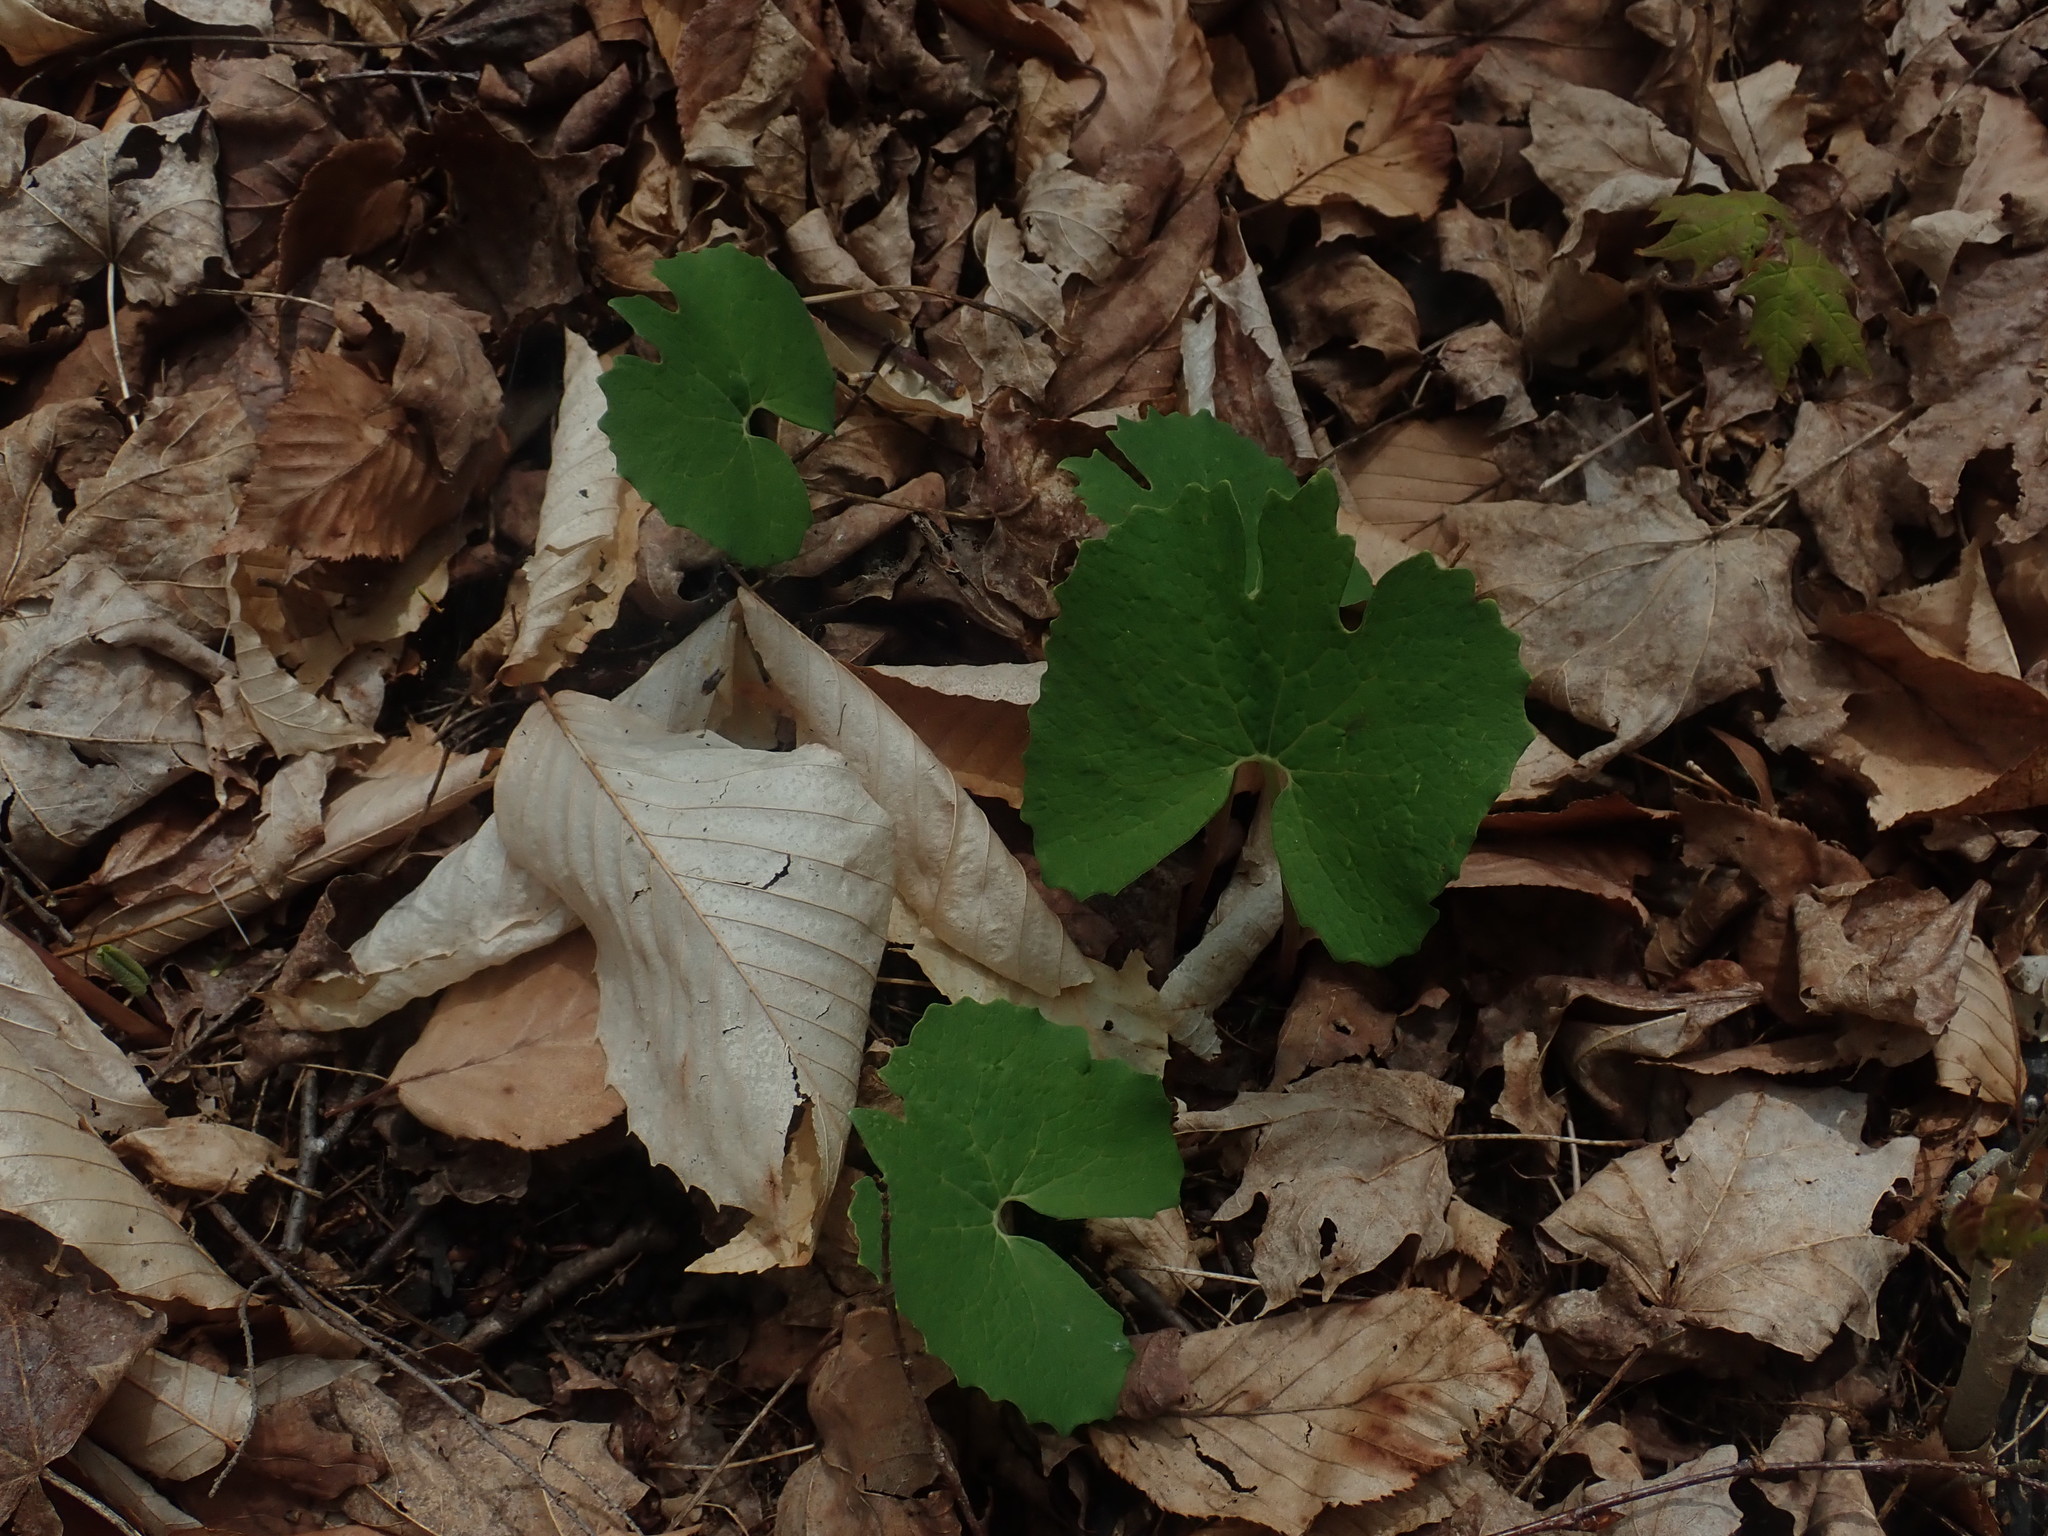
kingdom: Plantae
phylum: Tracheophyta
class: Magnoliopsida
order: Ranunculales
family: Papaveraceae
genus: Sanguinaria
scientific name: Sanguinaria canadensis
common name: Bloodroot
